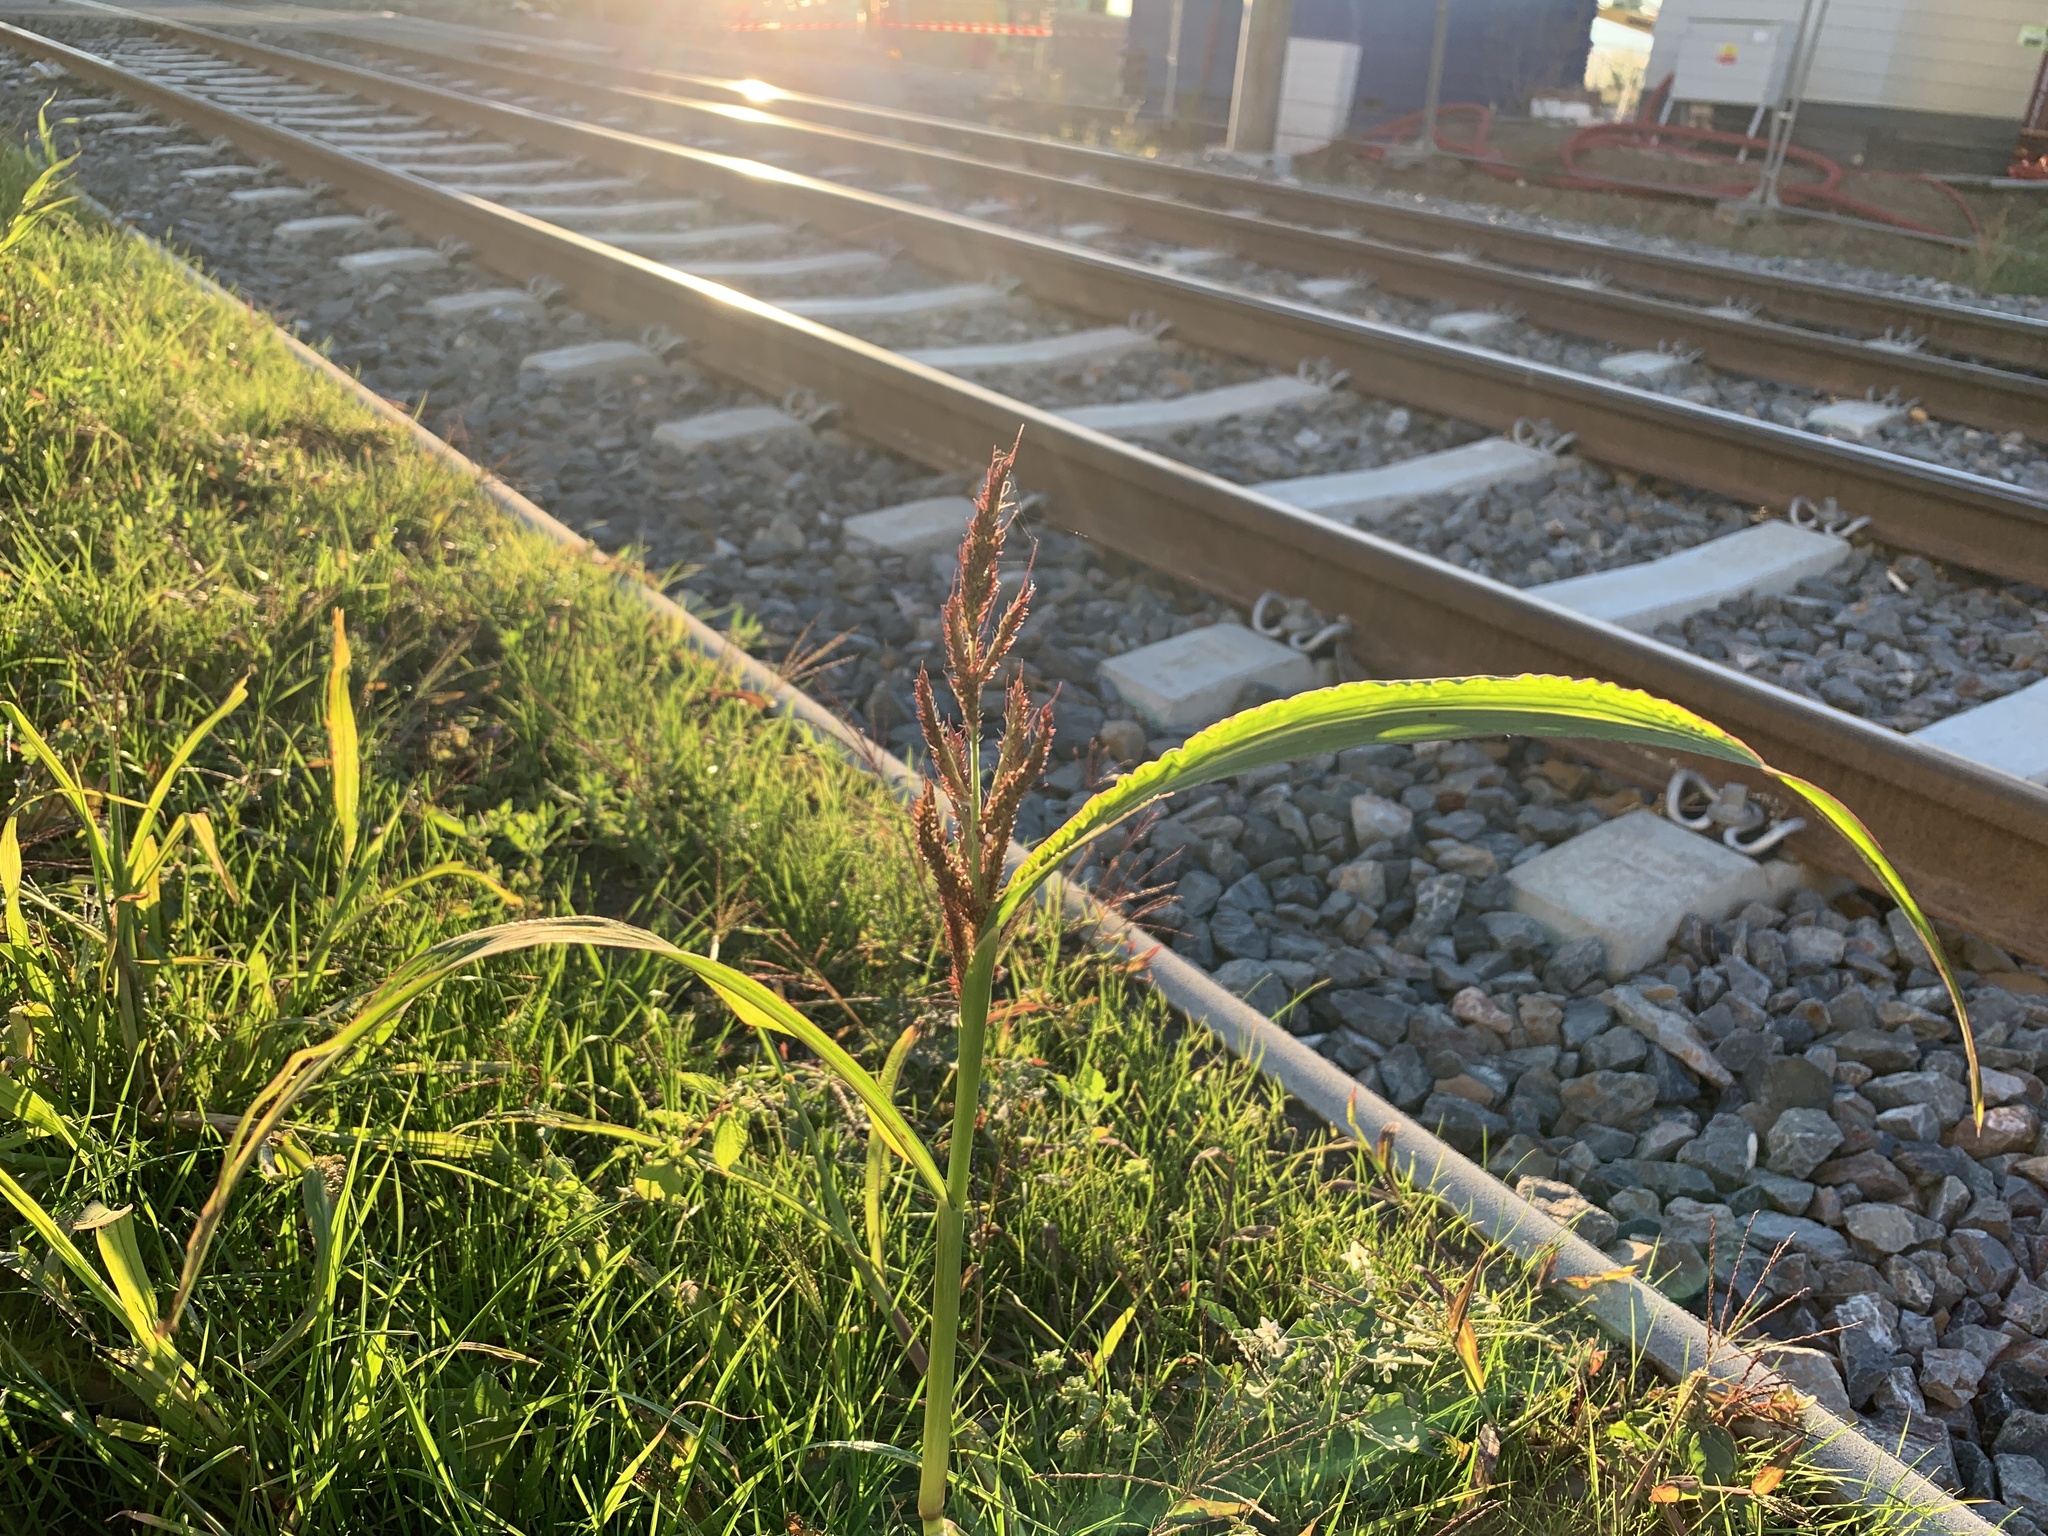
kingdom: Plantae
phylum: Tracheophyta
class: Liliopsida
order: Poales
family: Poaceae
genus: Echinochloa
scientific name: Echinochloa crus-galli
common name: Cockspur
